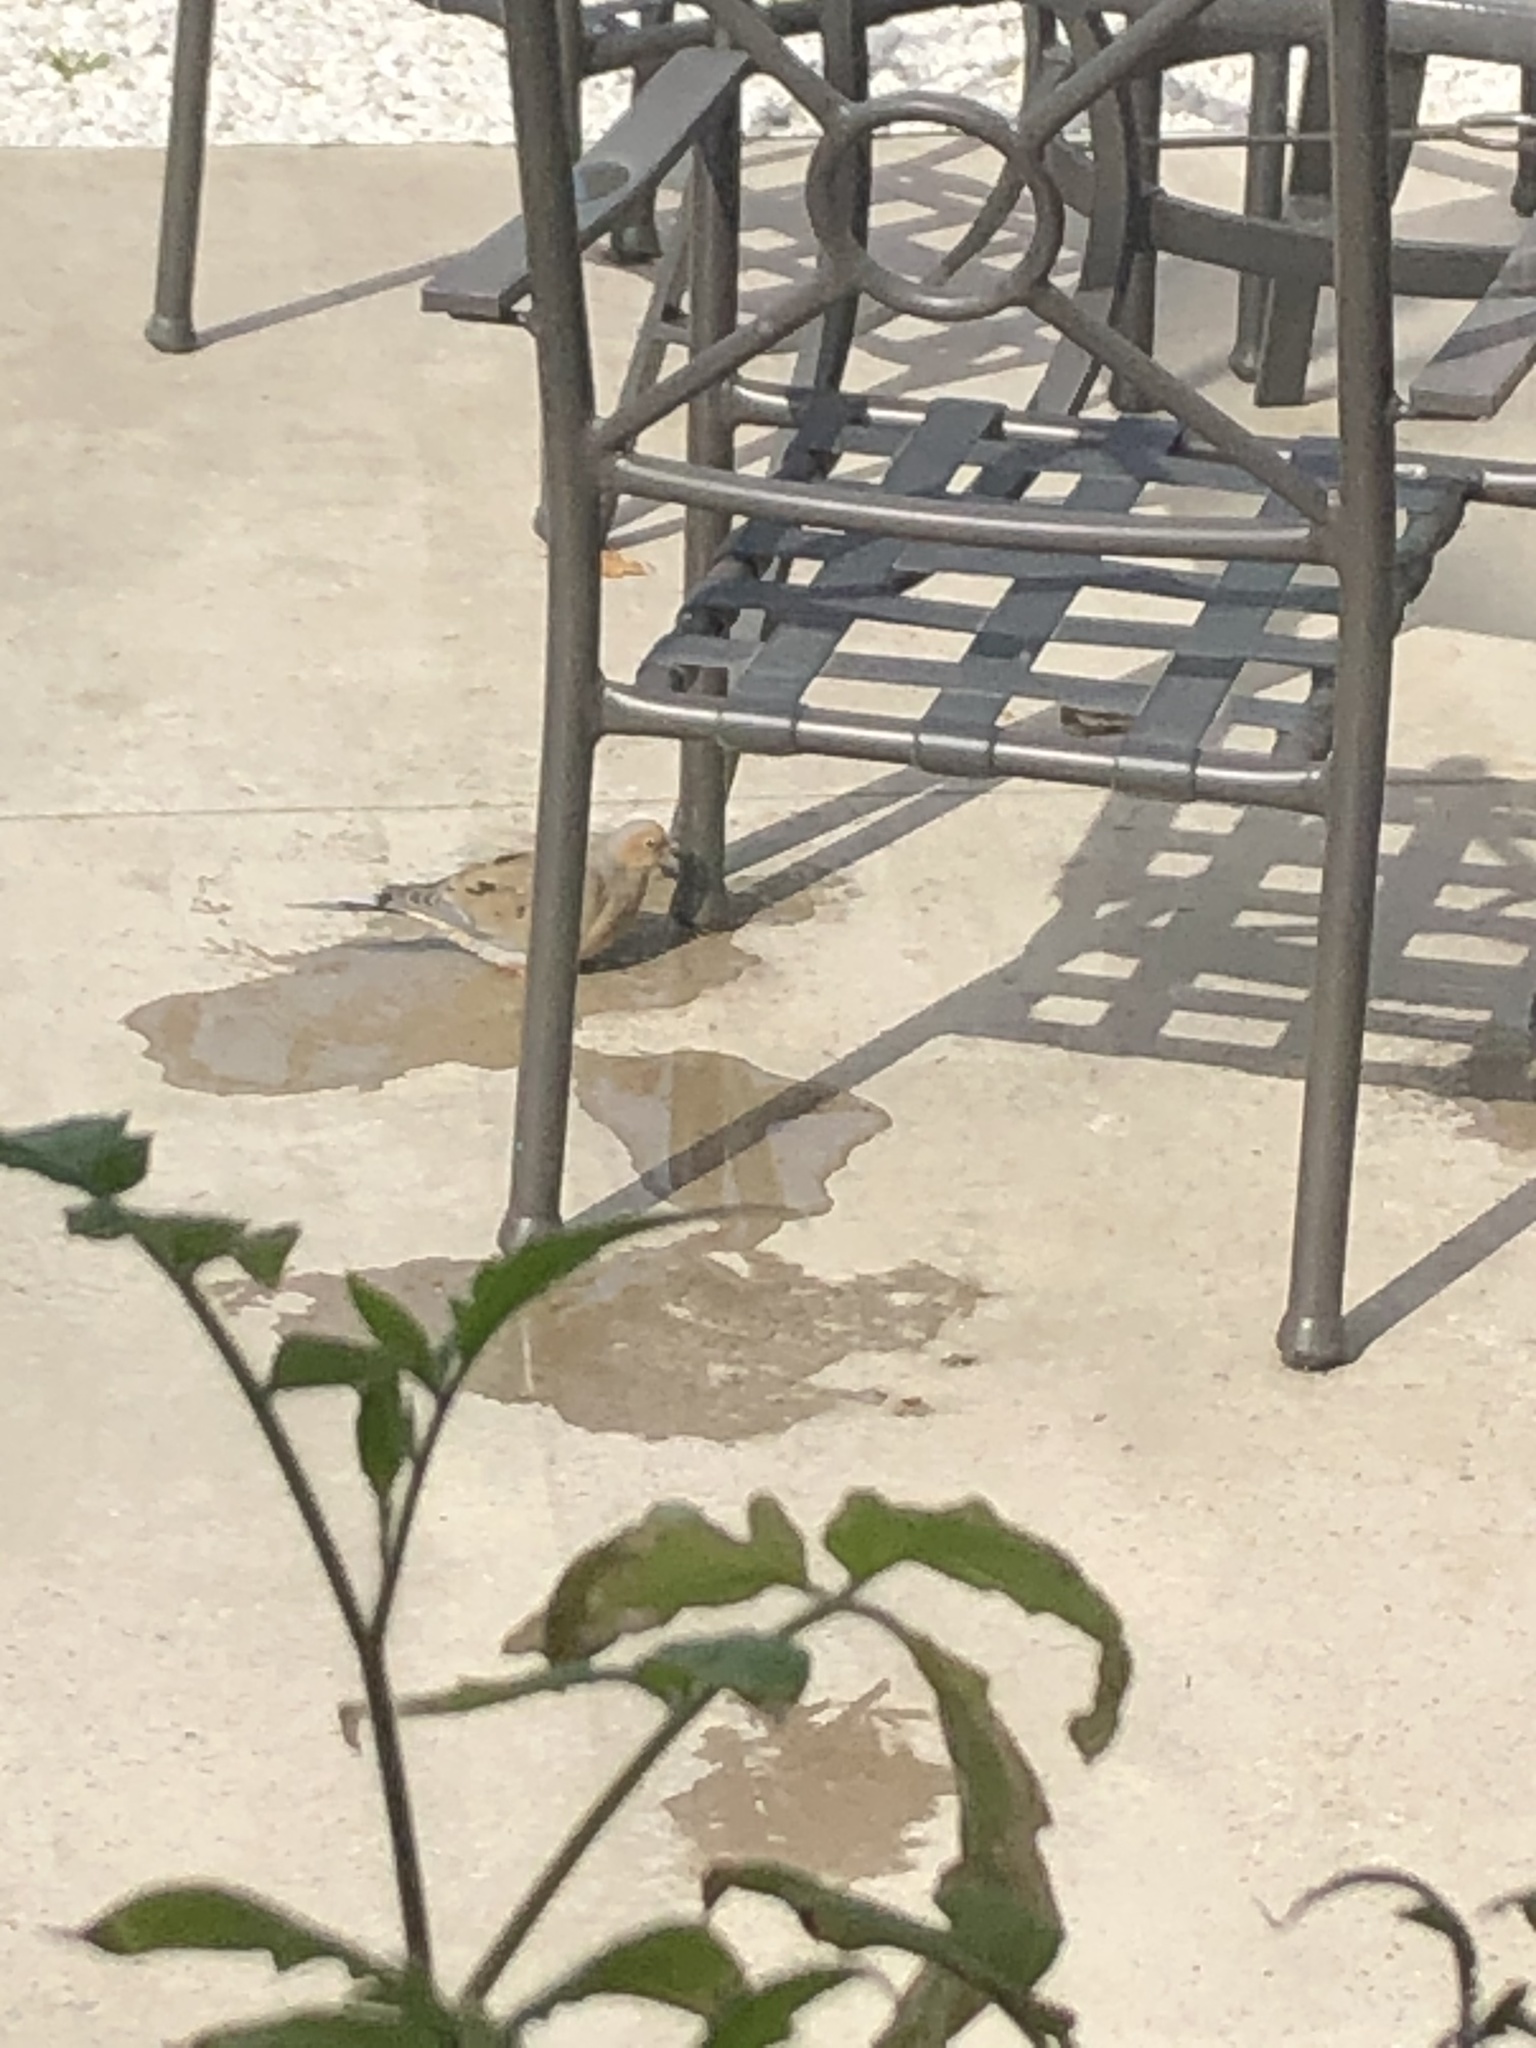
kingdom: Animalia
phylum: Chordata
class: Aves
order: Columbiformes
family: Columbidae
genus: Zenaida
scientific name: Zenaida macroura
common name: Mourning dove
